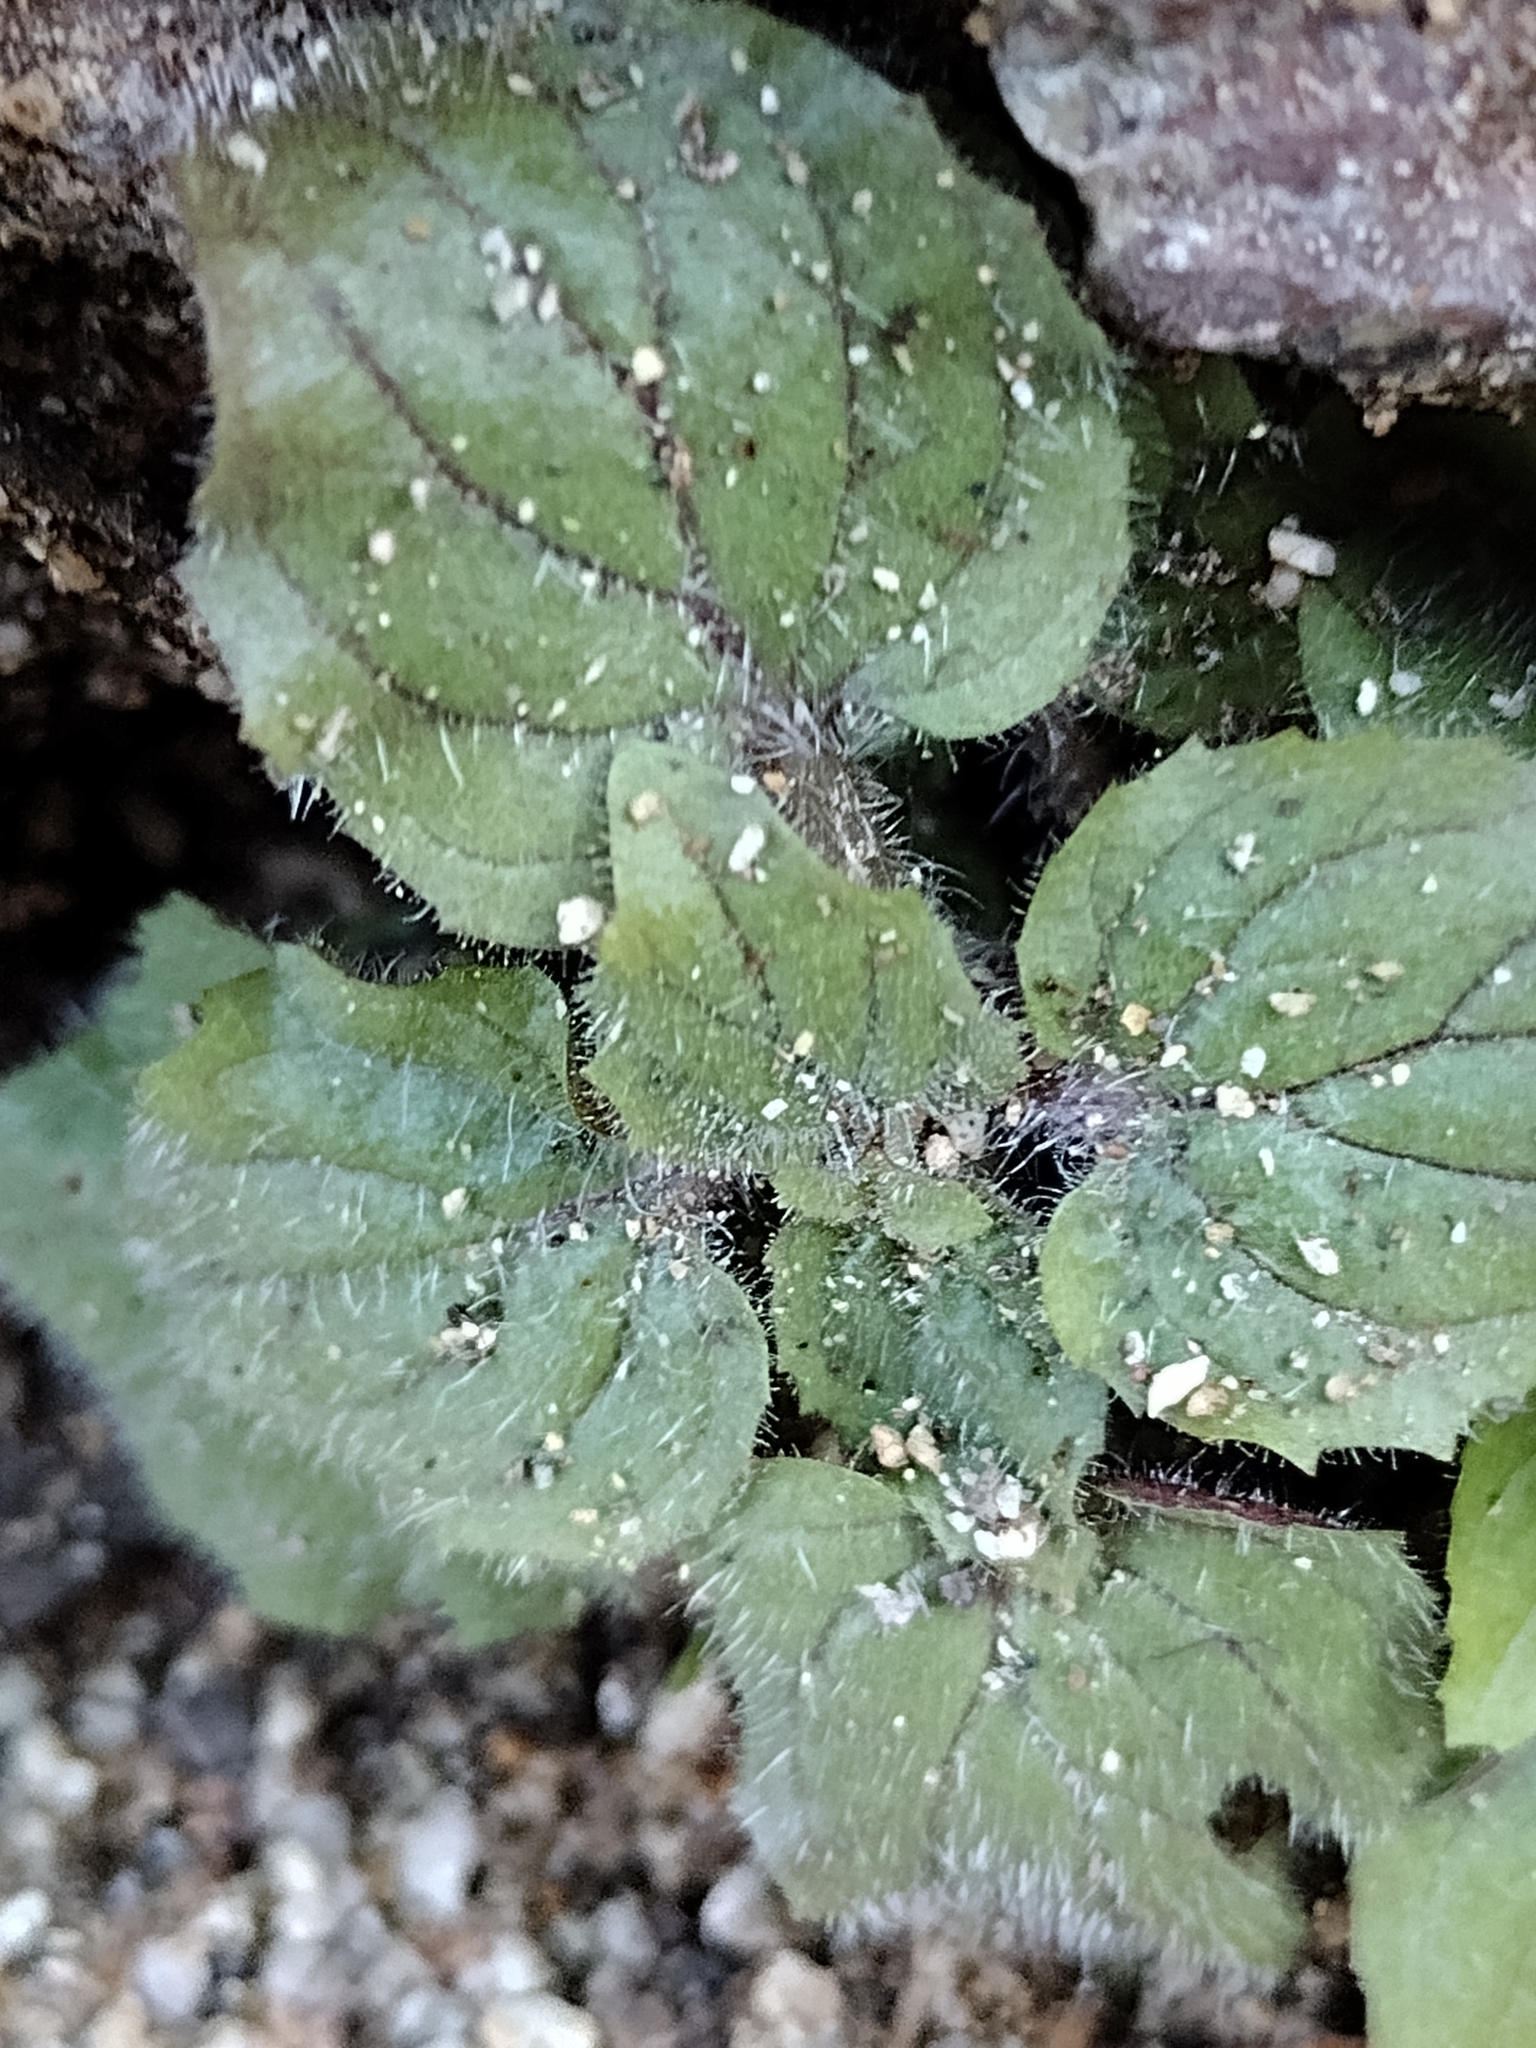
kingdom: Plantae
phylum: Tracheophyta
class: Magnoliopsida
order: Lamiales
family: Phrymaceae
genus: Erythranthe
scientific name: Erythranthe floribunda
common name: Floriferous monkeyflower
